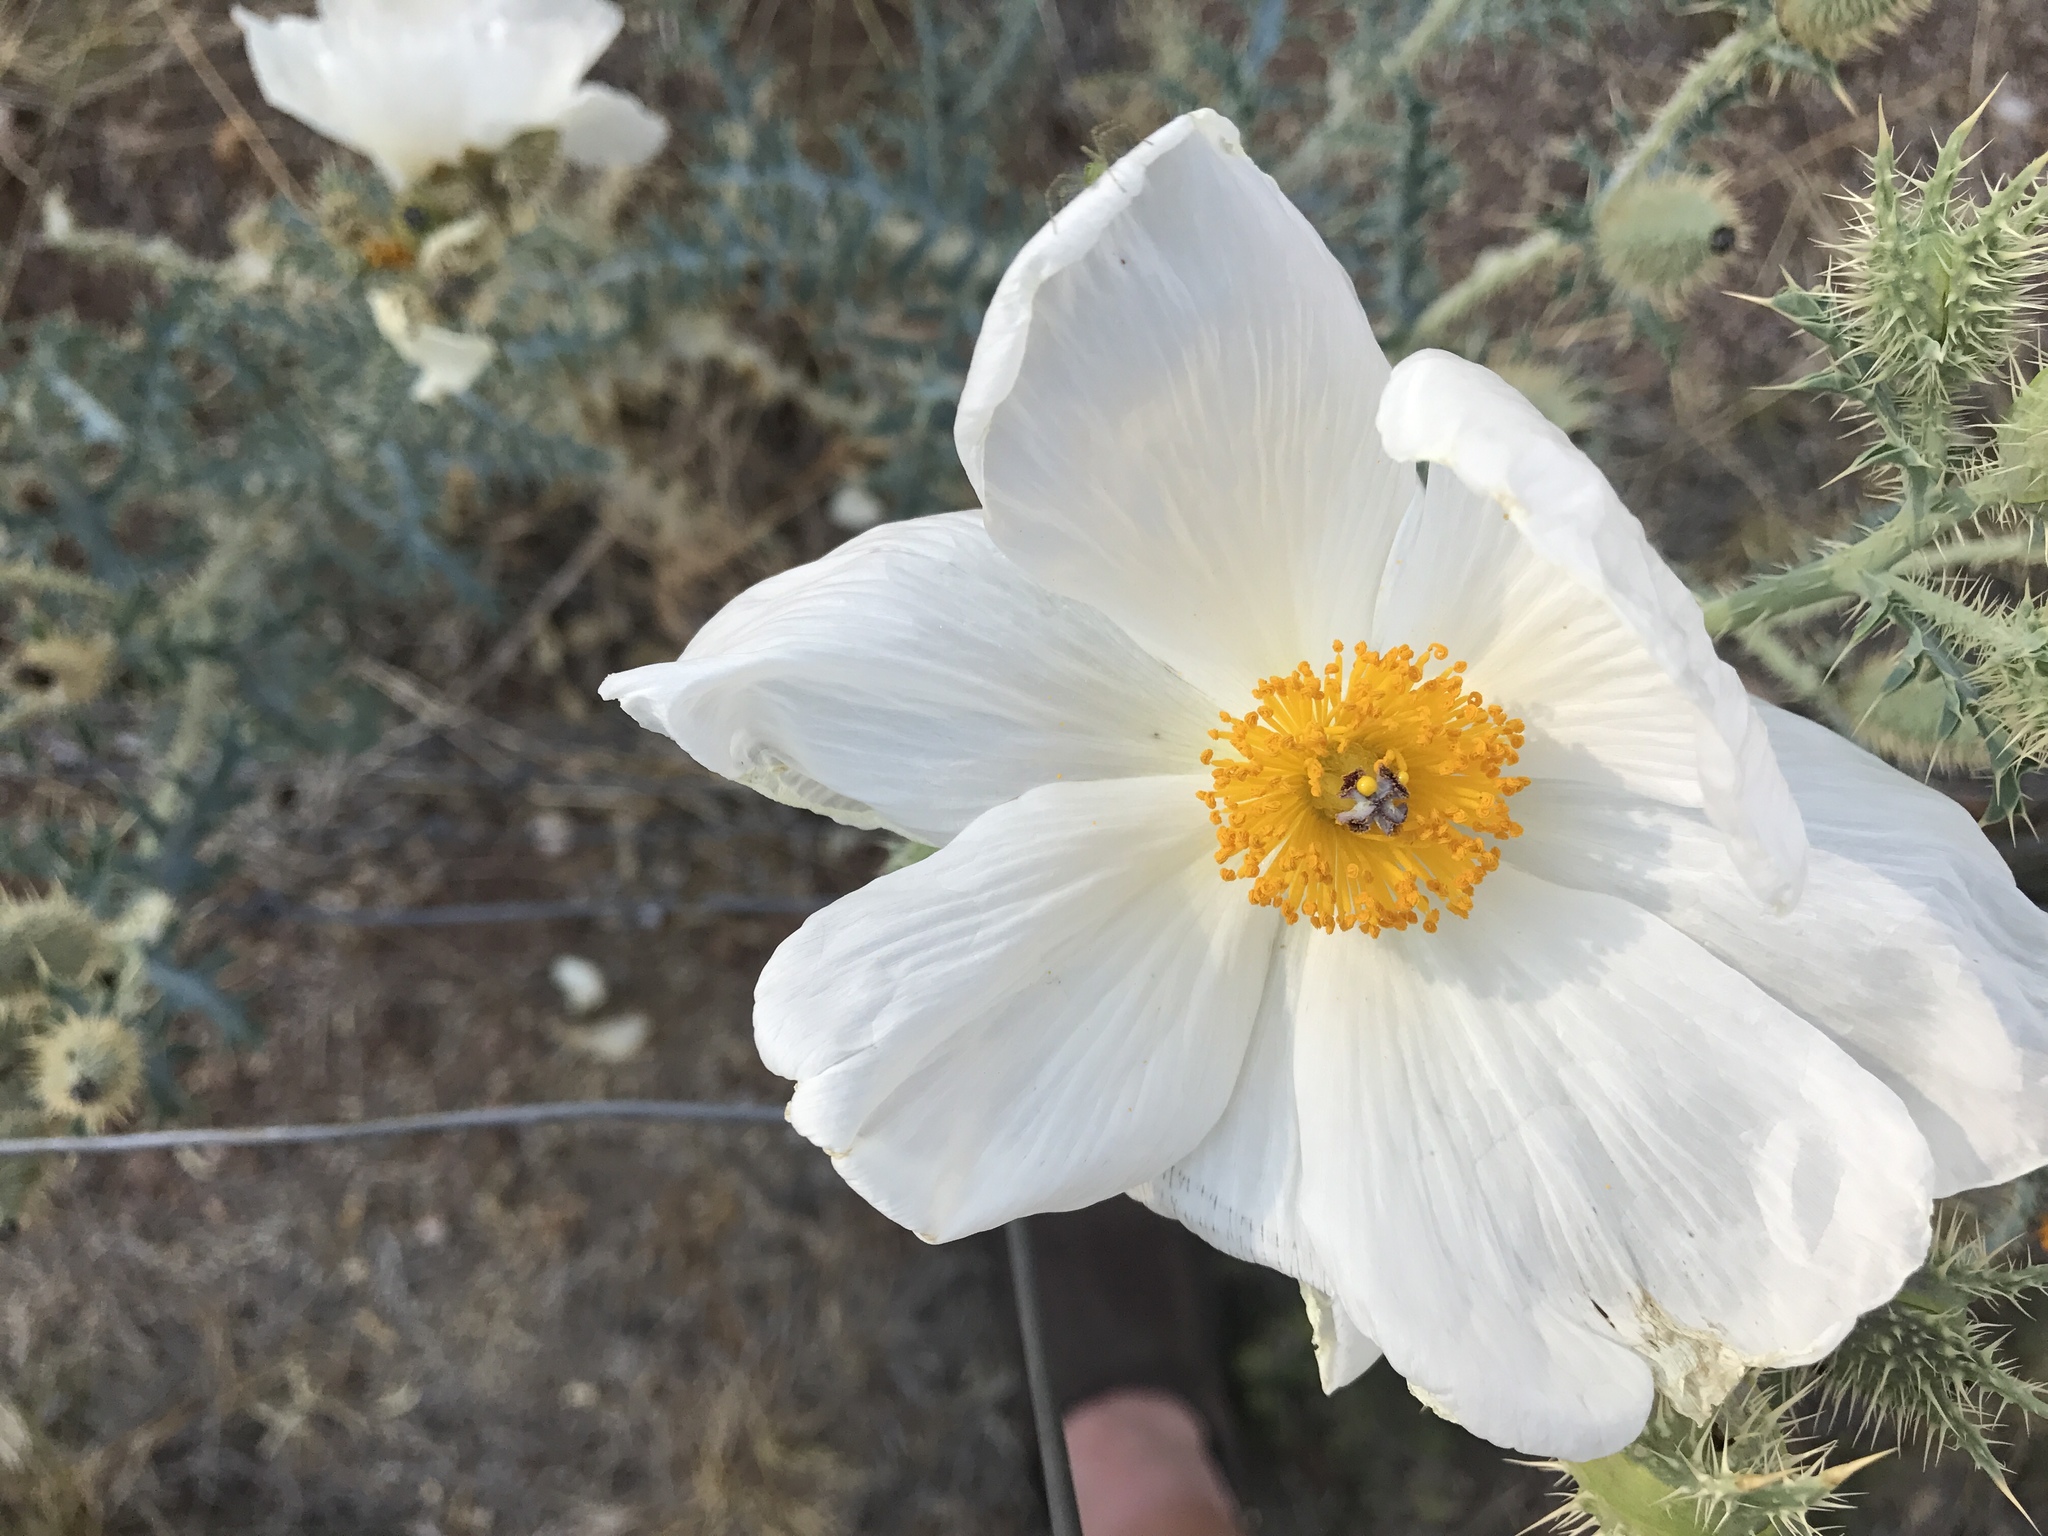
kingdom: Plantae
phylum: Tracheophyta
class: Magnoliopsida
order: Ranunculales
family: Papaveraceae
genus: Argemone
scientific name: Argemone pleiacantha
